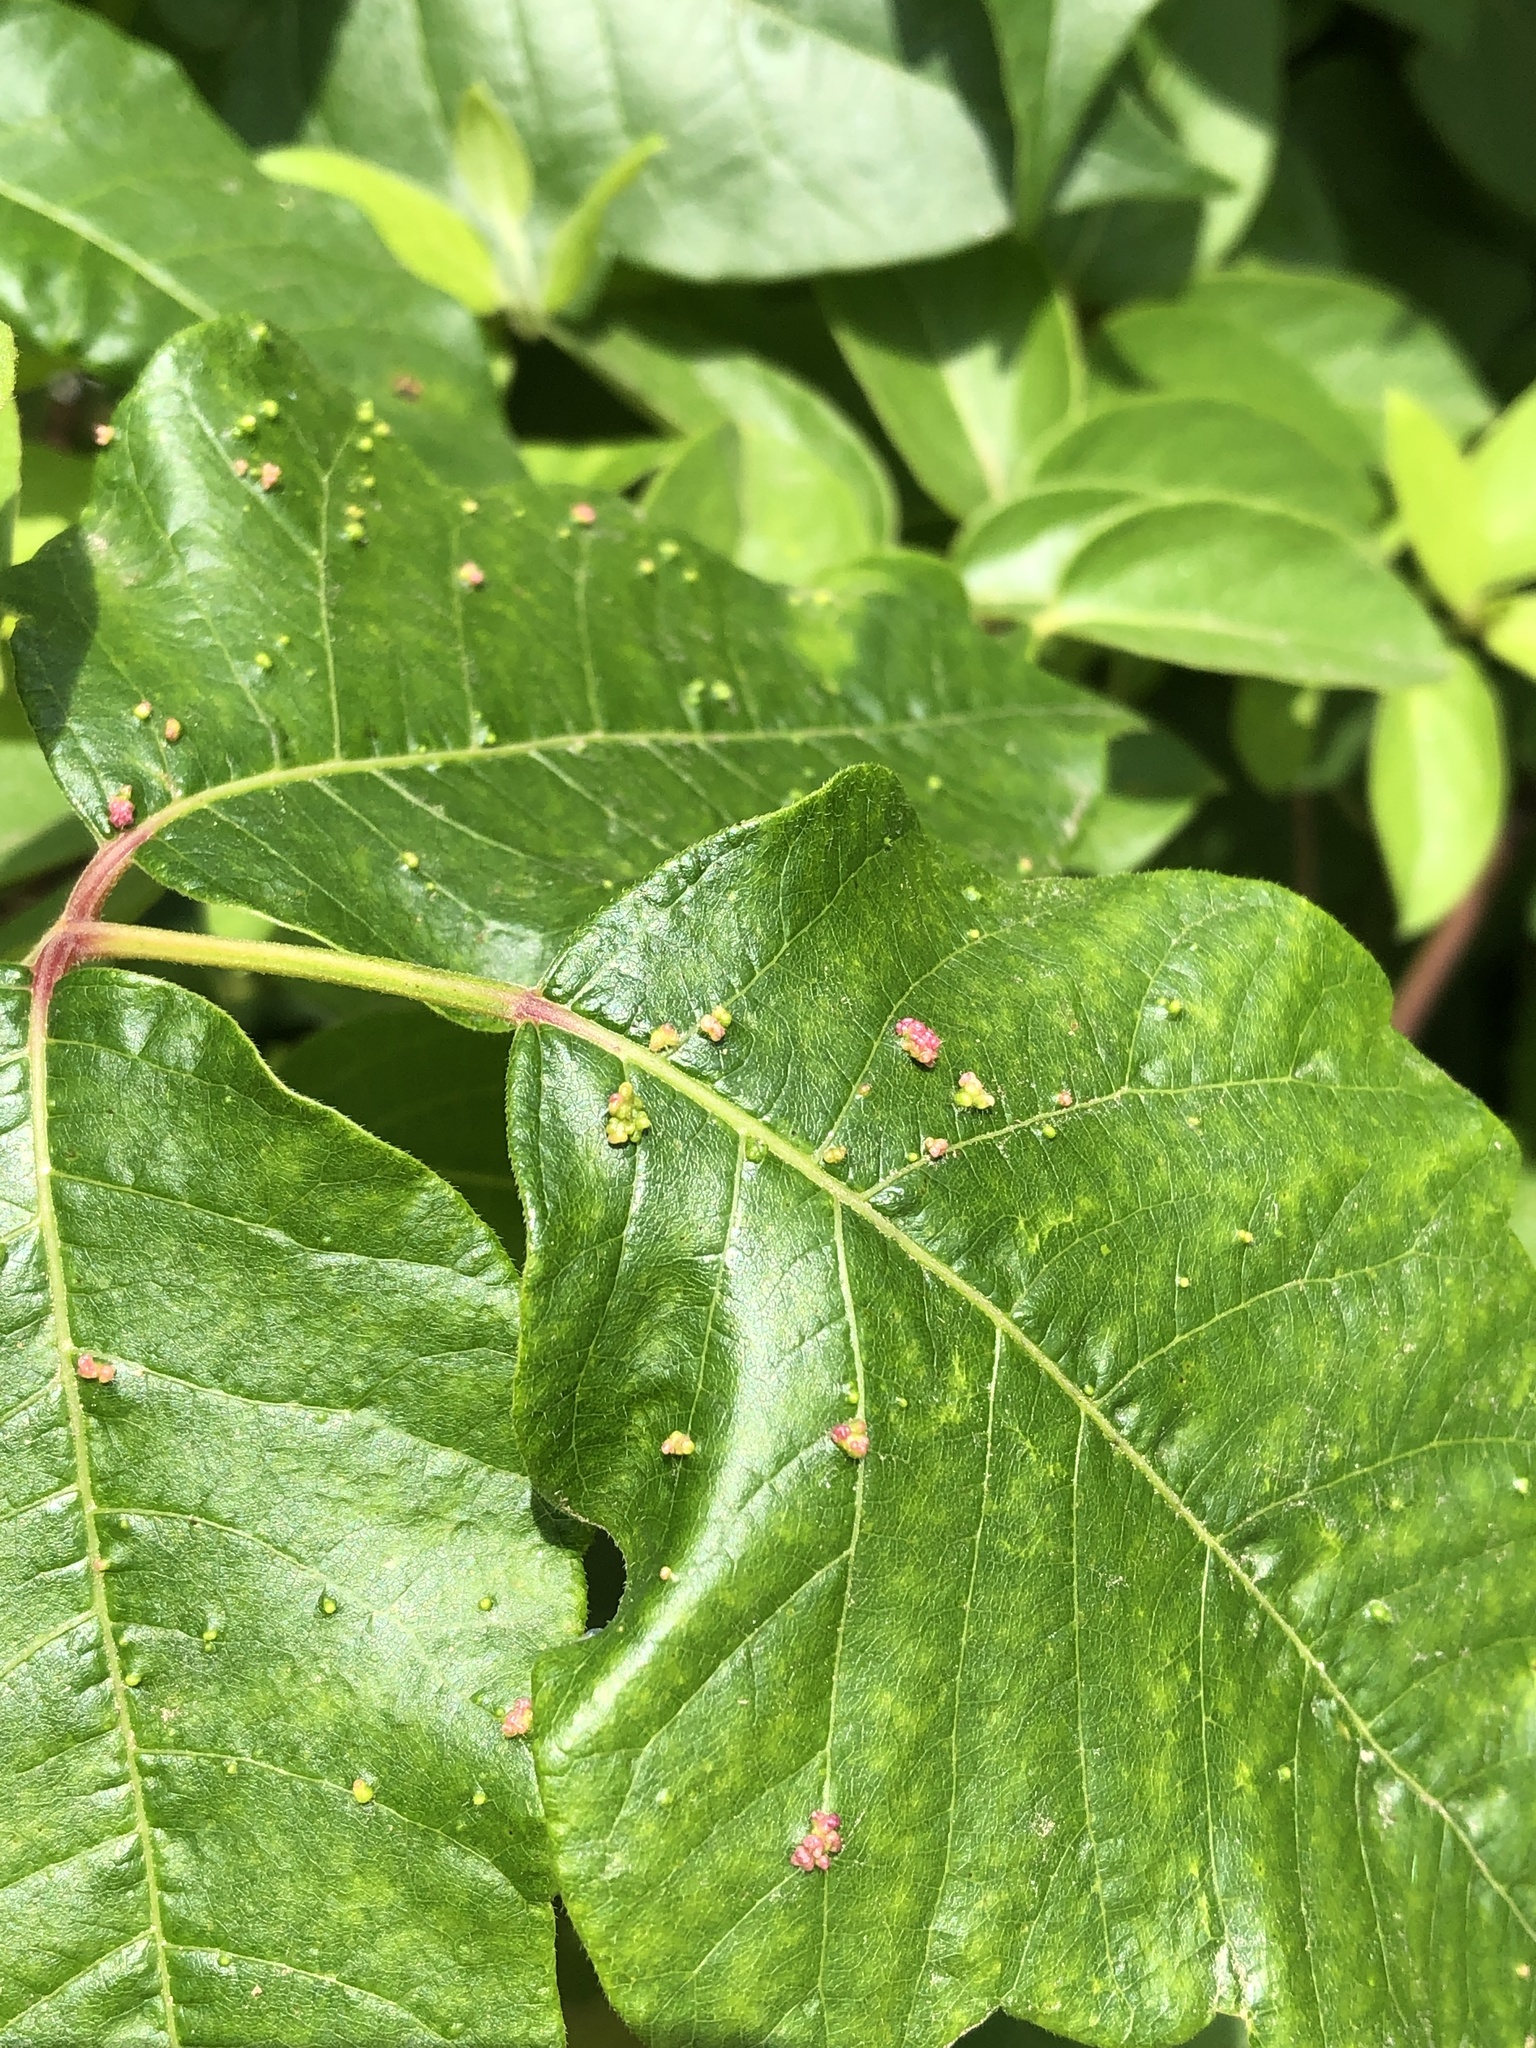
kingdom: Animalia
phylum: Arthropoda
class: Arachnida
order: Trombidiformes
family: Eriophyidae
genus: Aculops
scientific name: Aculops
